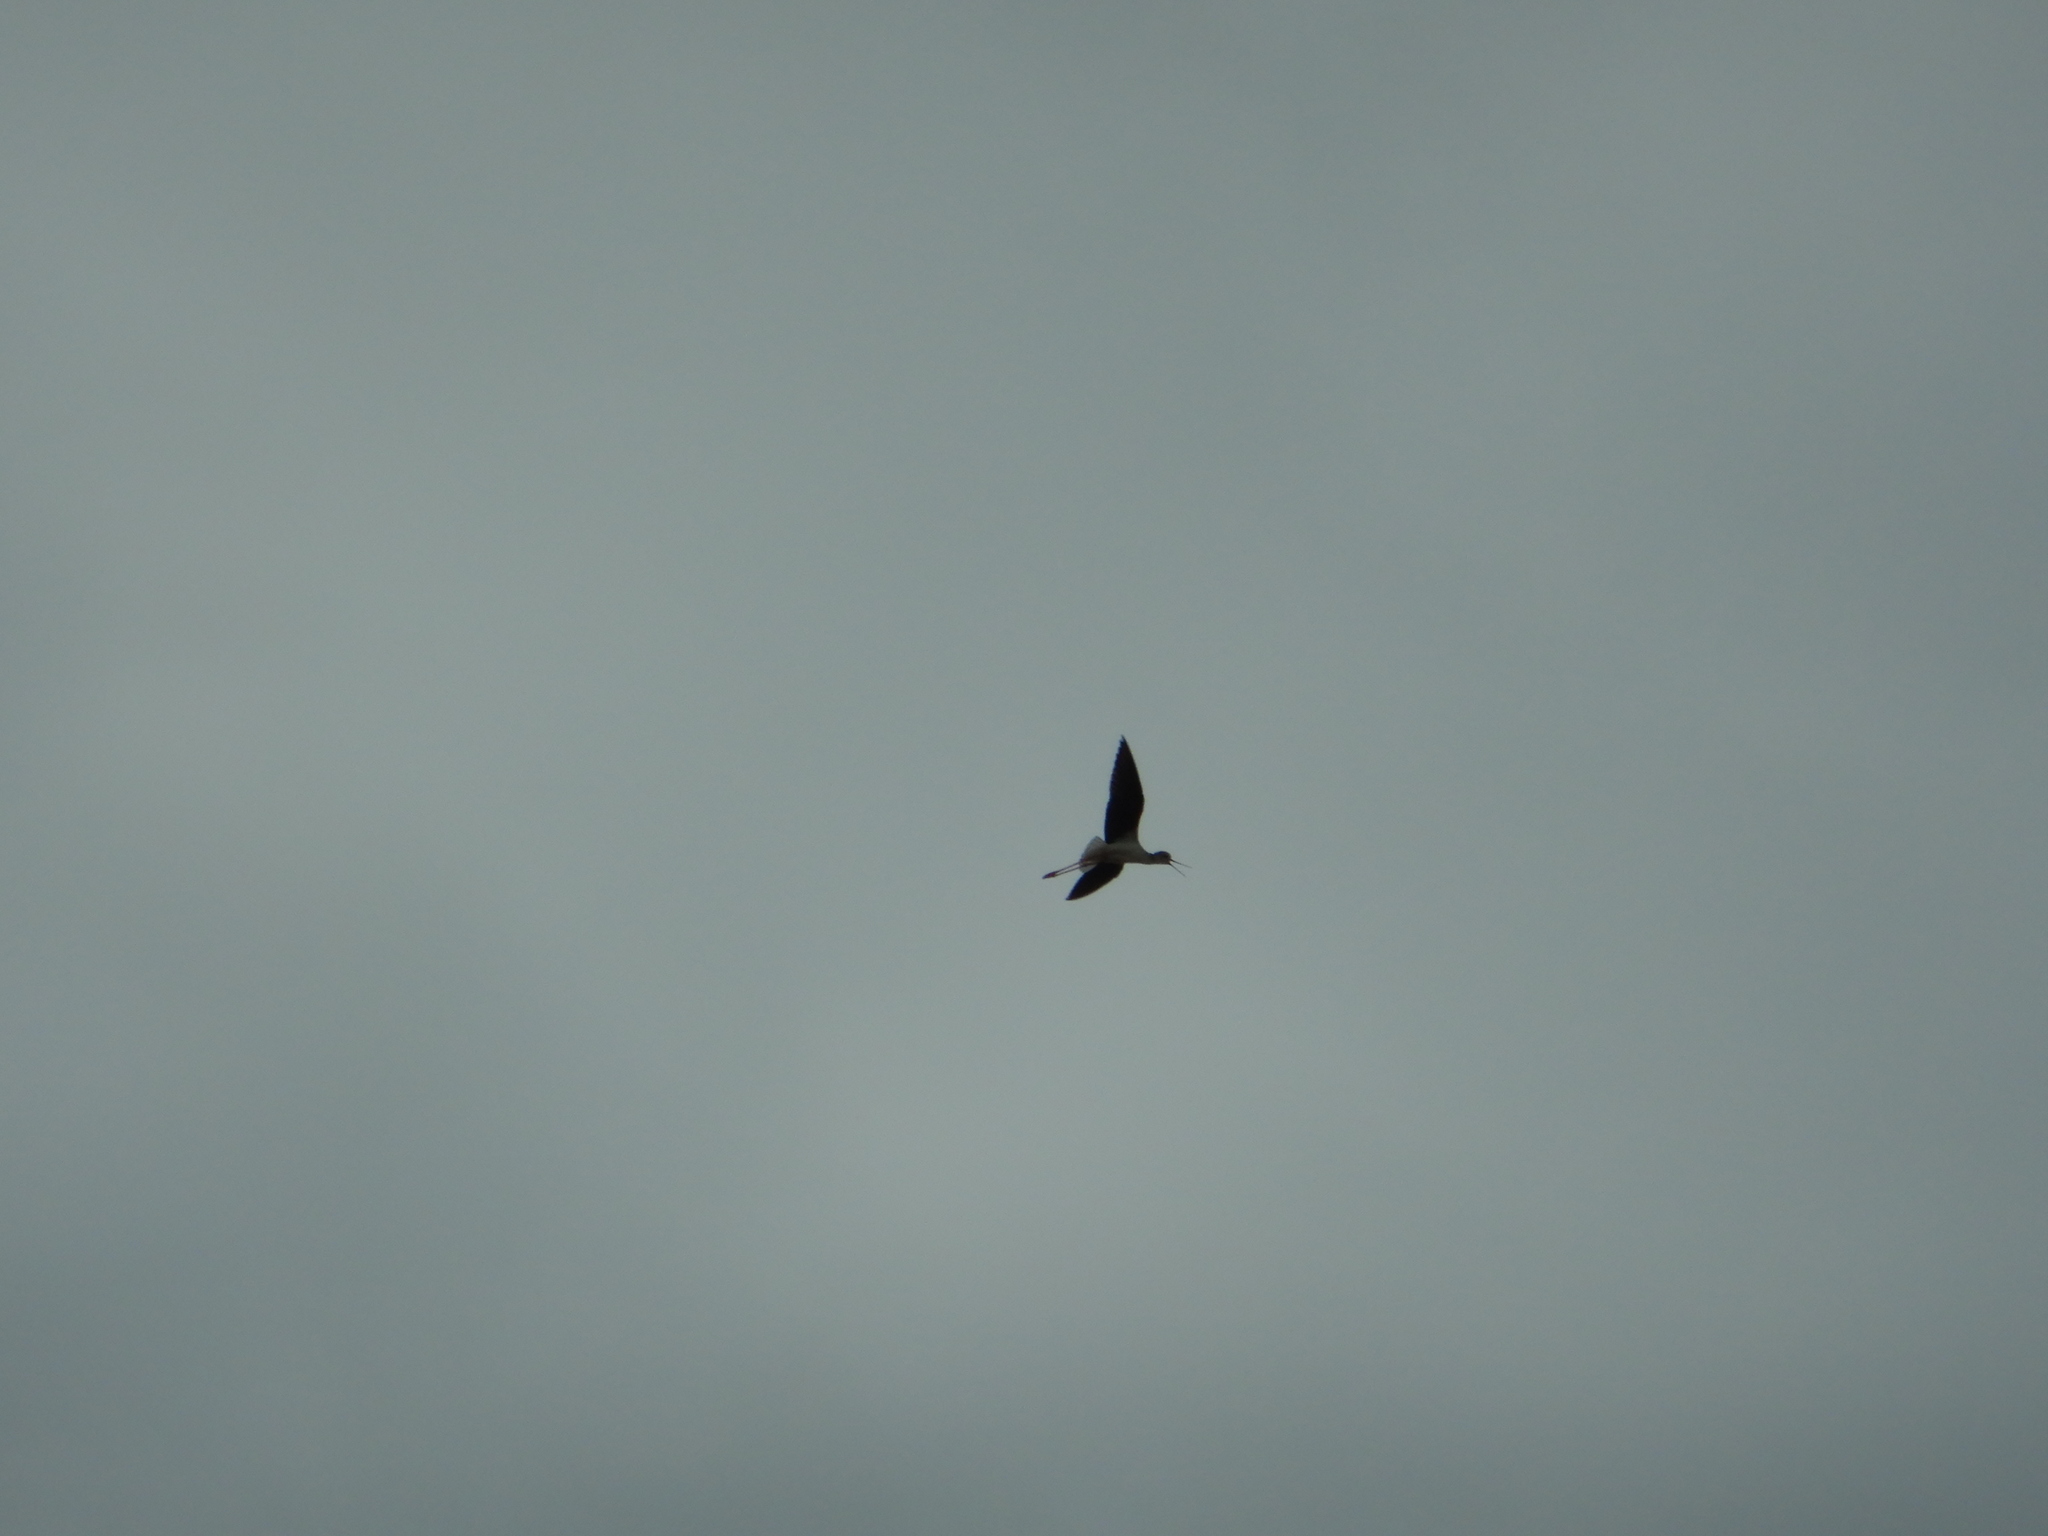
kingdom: Animalia
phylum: Chordata
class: Aves
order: Charadriiformes
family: Recurvirostridae
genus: Himantopus
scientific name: Himantopus himantopus
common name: Black-winged stilt
